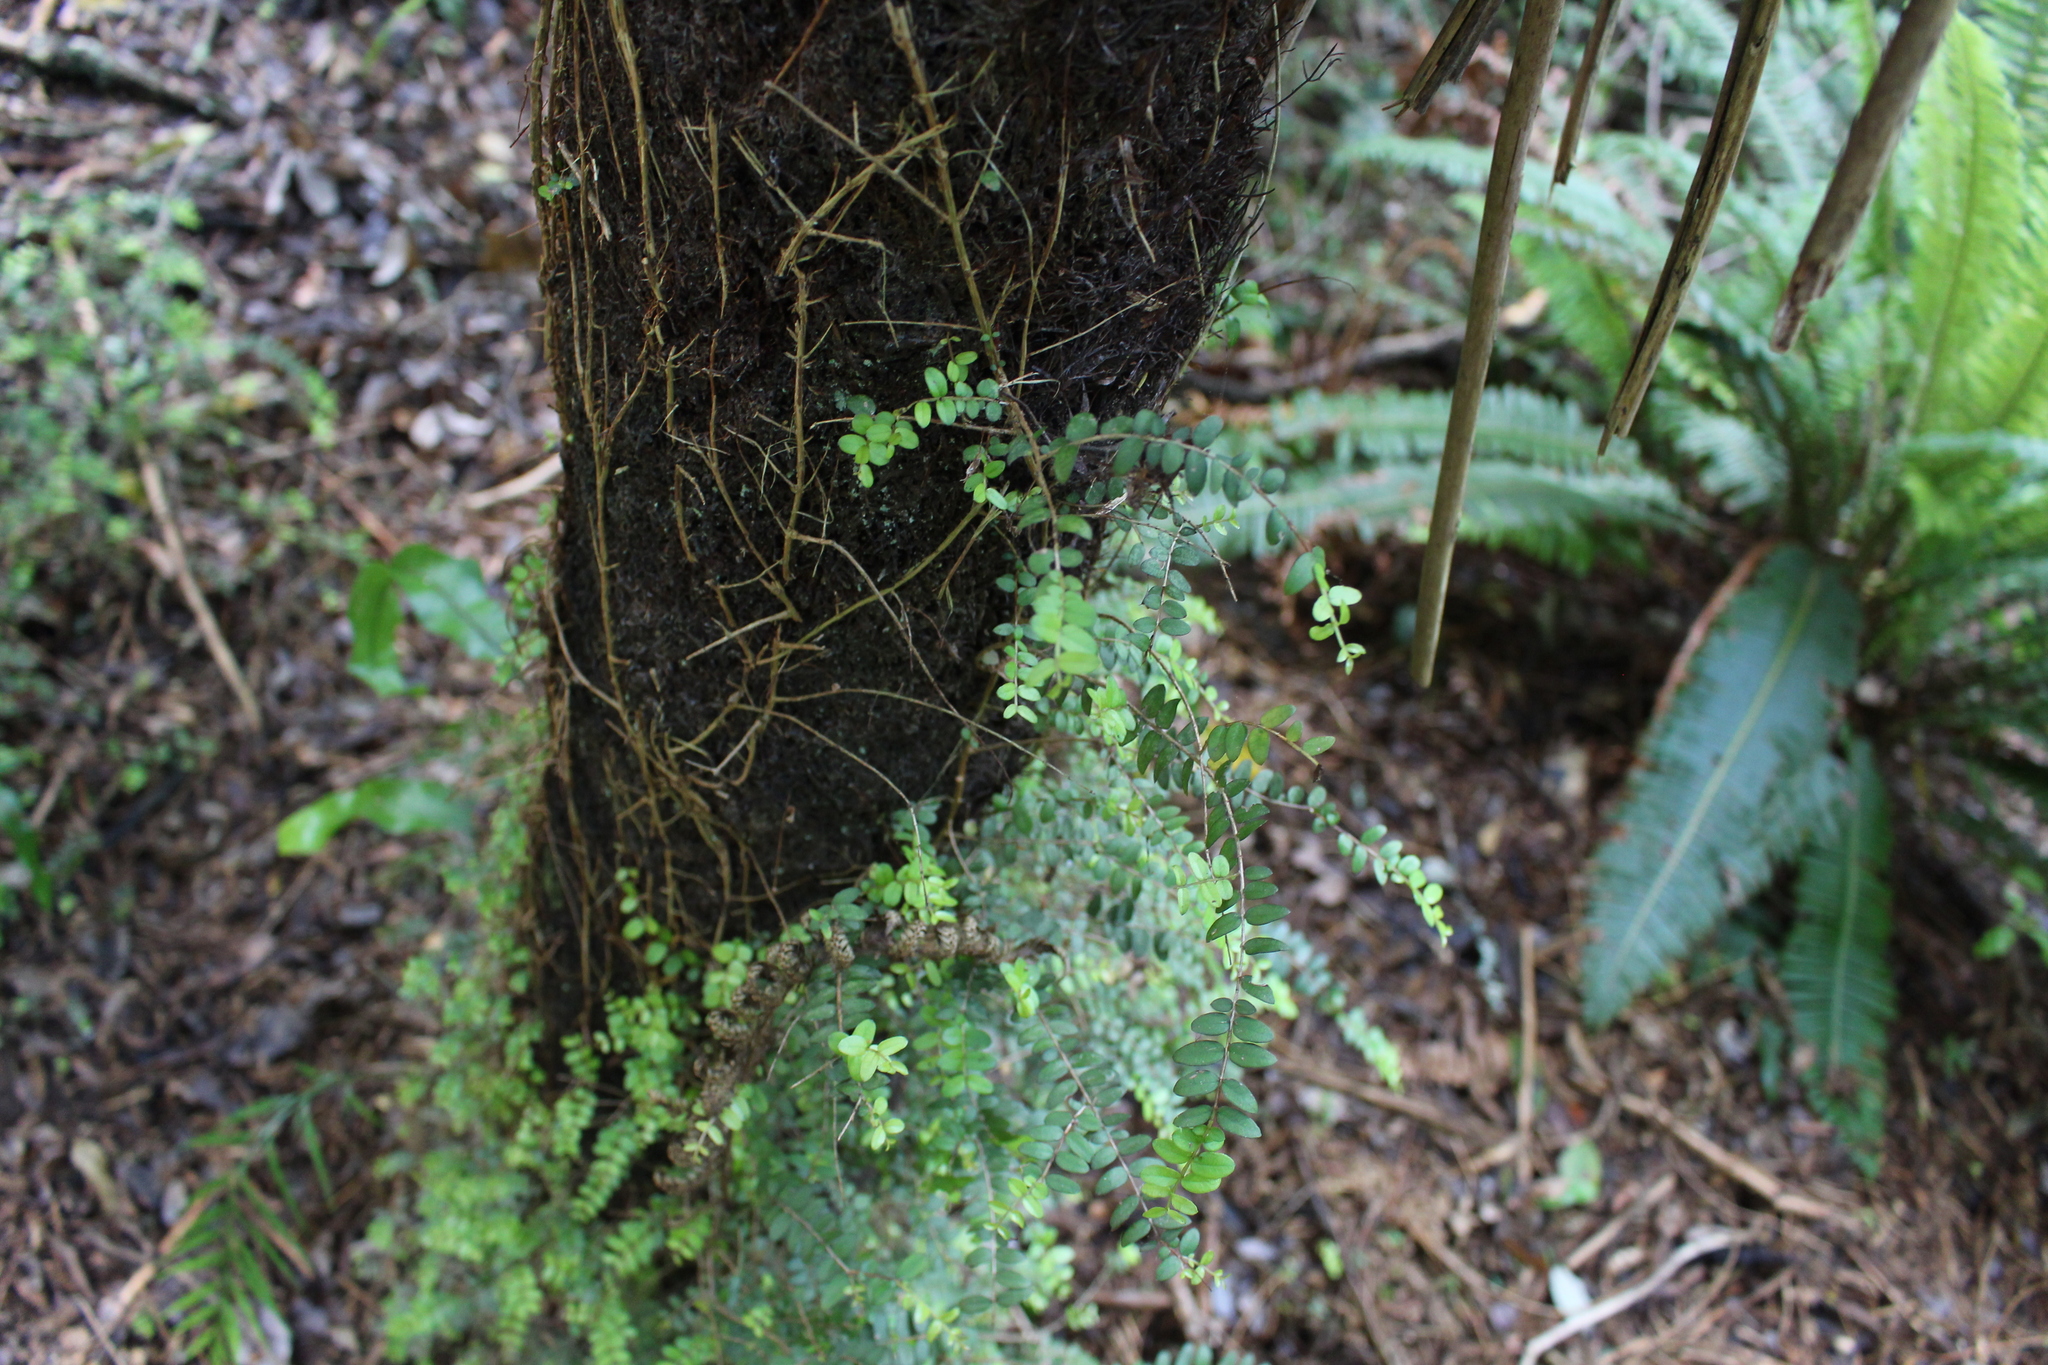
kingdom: Plantae
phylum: Tracheophyta
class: Magnoliopsida
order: Myrtales
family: Myrtaceae
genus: Metrosideros
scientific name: Metrosideros diffusa
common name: Small ratavine
